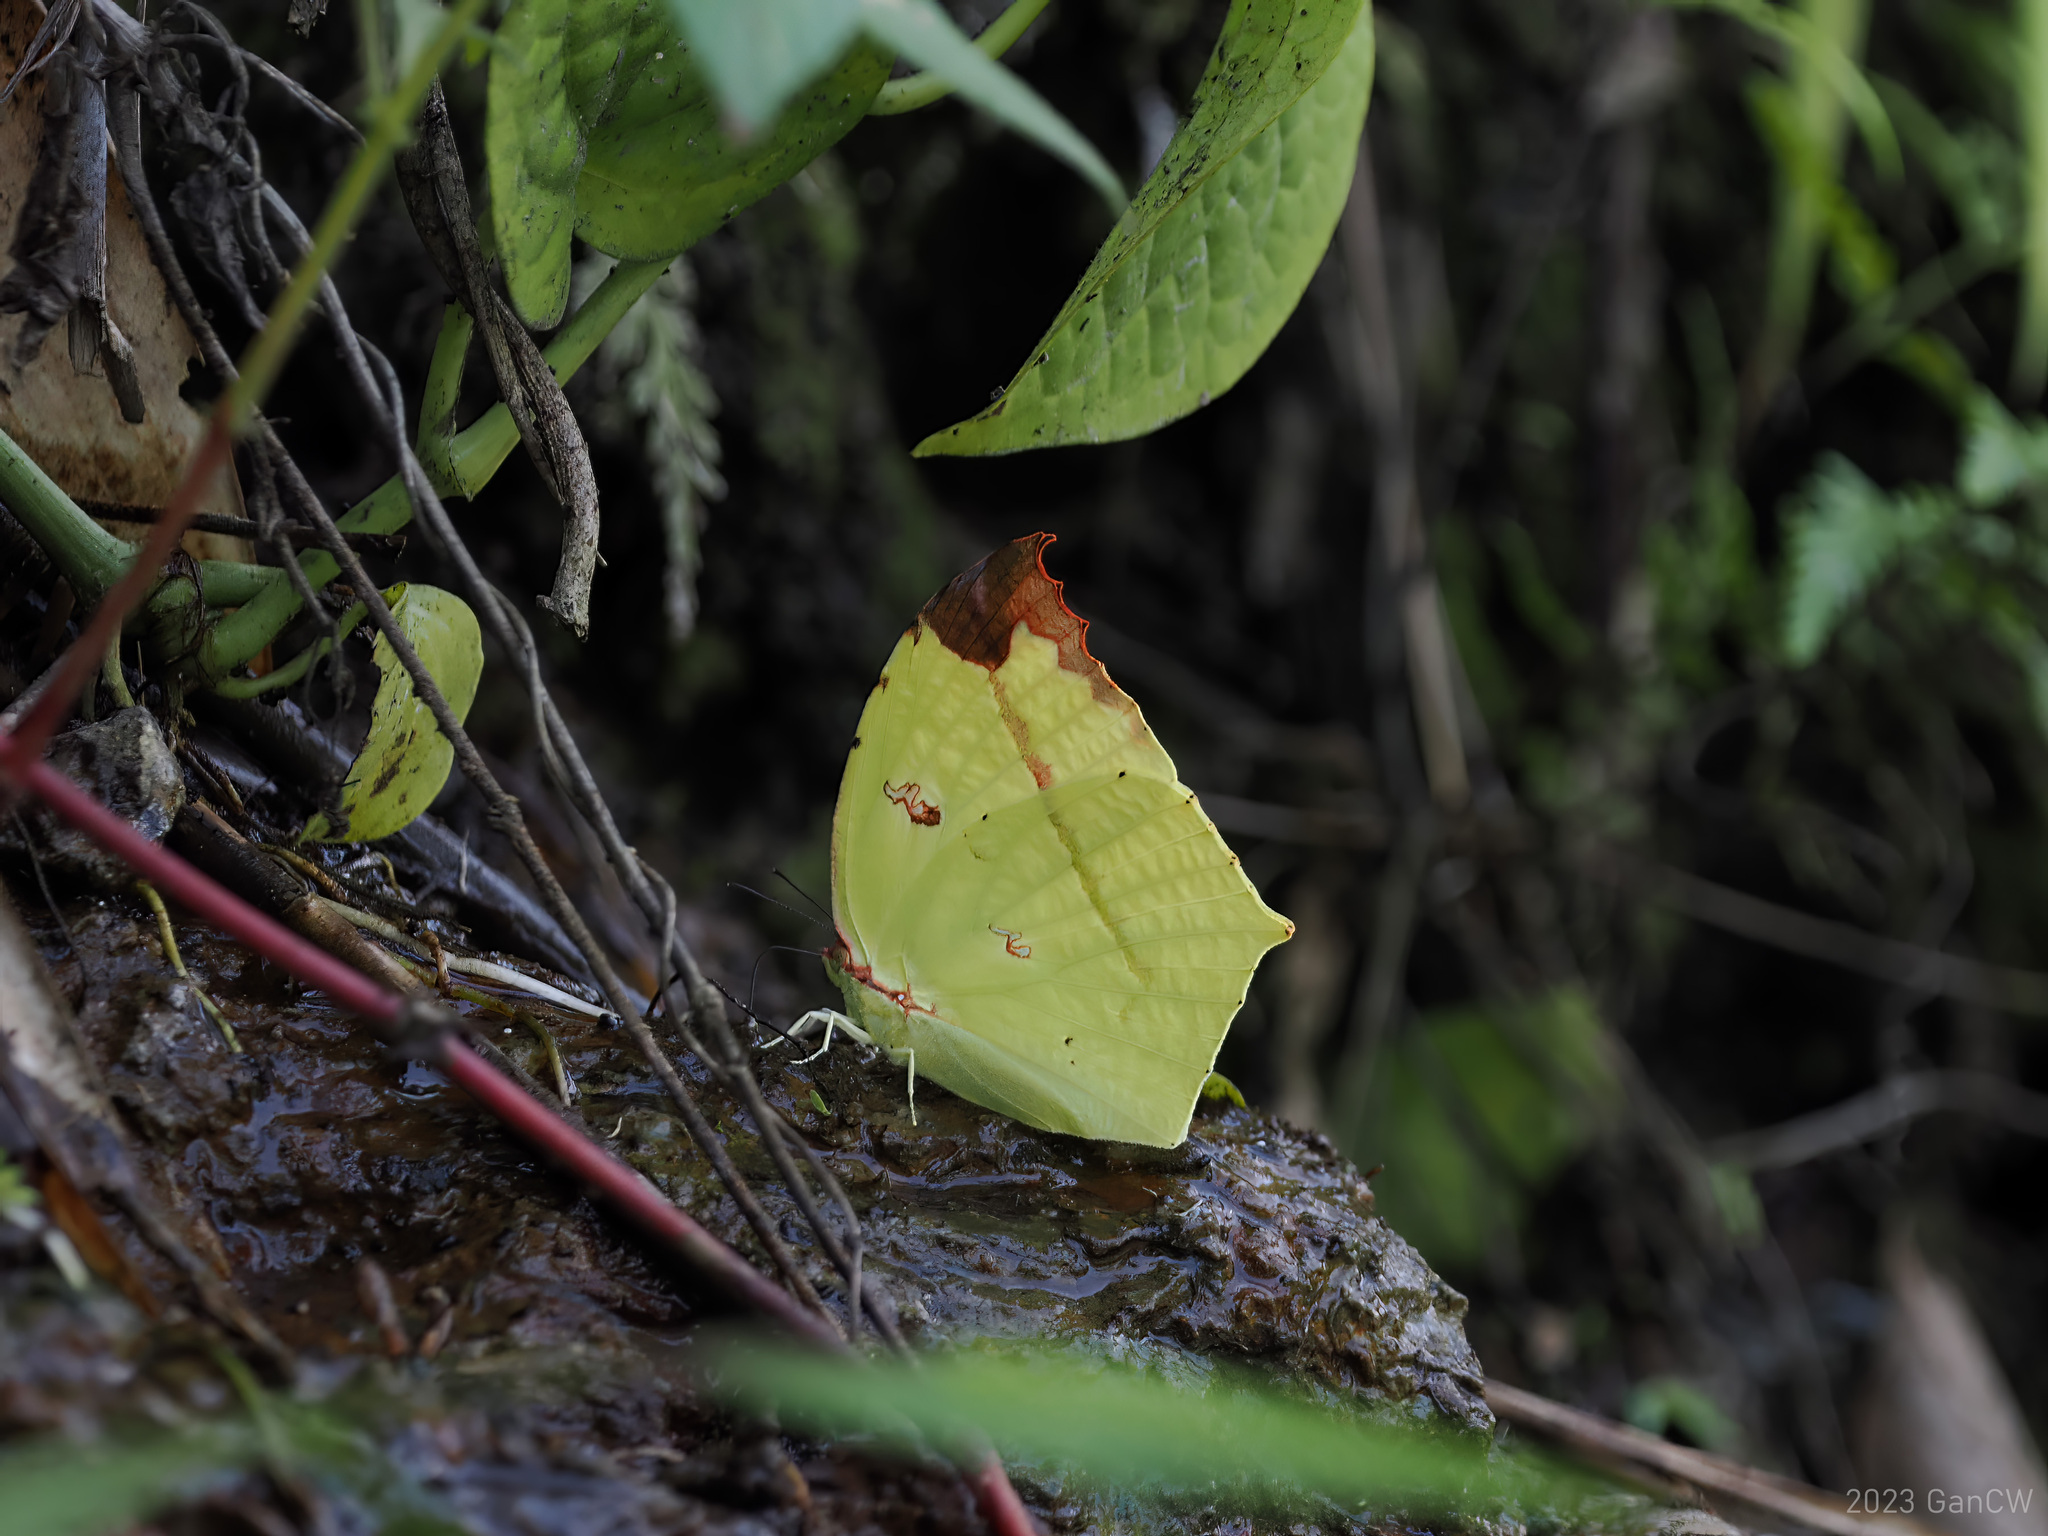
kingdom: Animalia
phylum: Arthropoda
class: Insecta
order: Lepidoptera
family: Pieridae
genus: Dercas
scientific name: Dercas verhuelli
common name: Tailed sulphur
